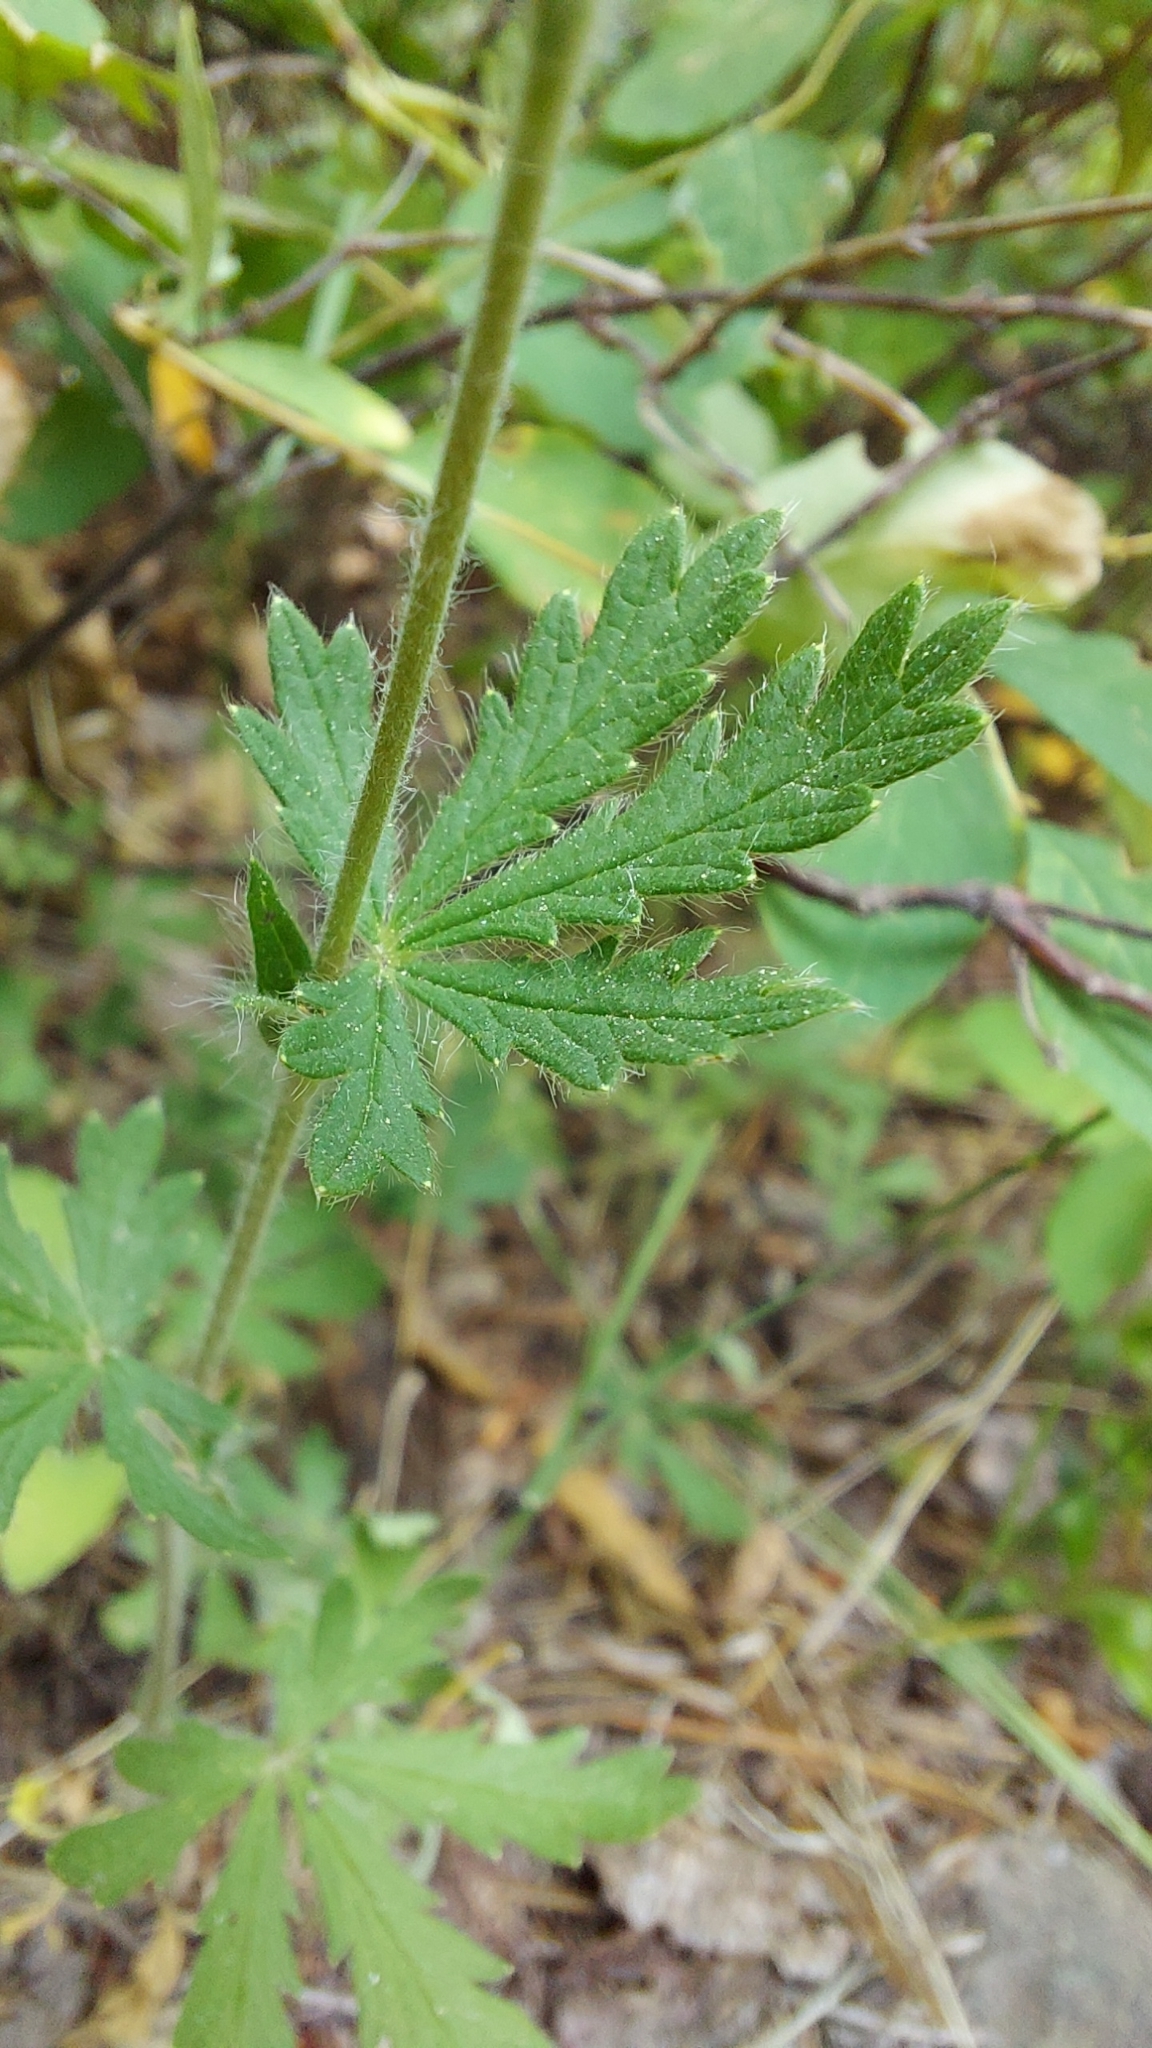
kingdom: Plantae
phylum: Tracheophyta
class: Magnoliopsida
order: Rosales
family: Rosaceae
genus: Potentilla
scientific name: Potentilla argentea
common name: Hoary cinquefoil
